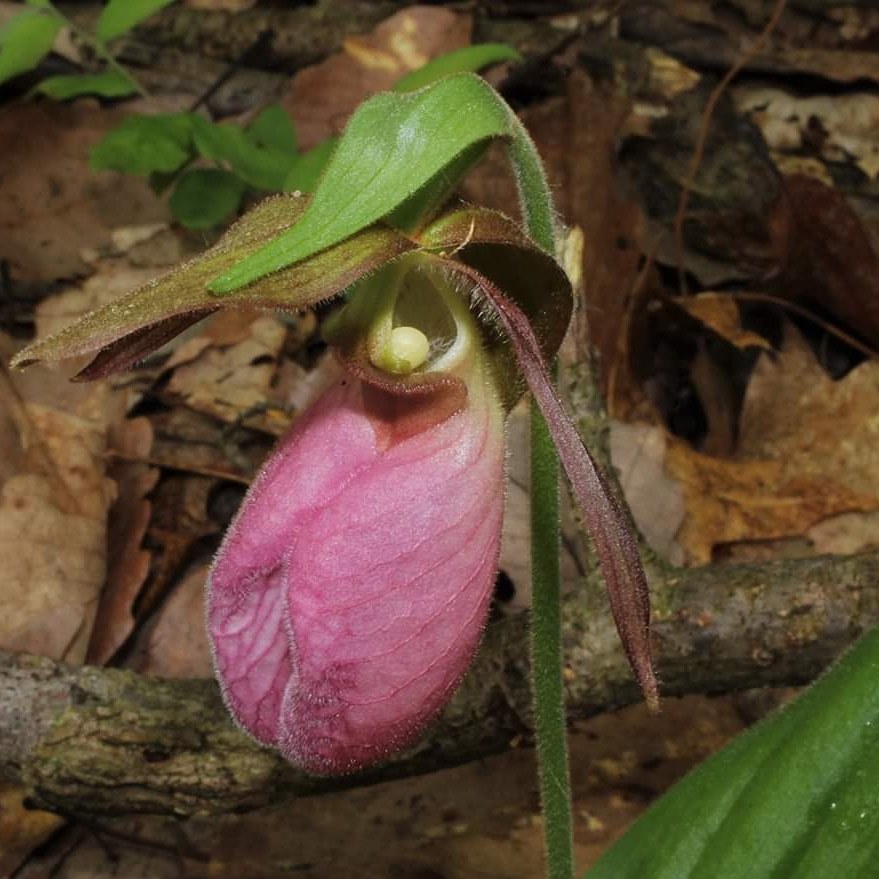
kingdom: Plantae
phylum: Tracheophyta
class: Liliopsida
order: Asparagales
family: Orchidaceae
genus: Cypripedium
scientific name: Cypripedium acaule
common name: Pink lady's-slipper
